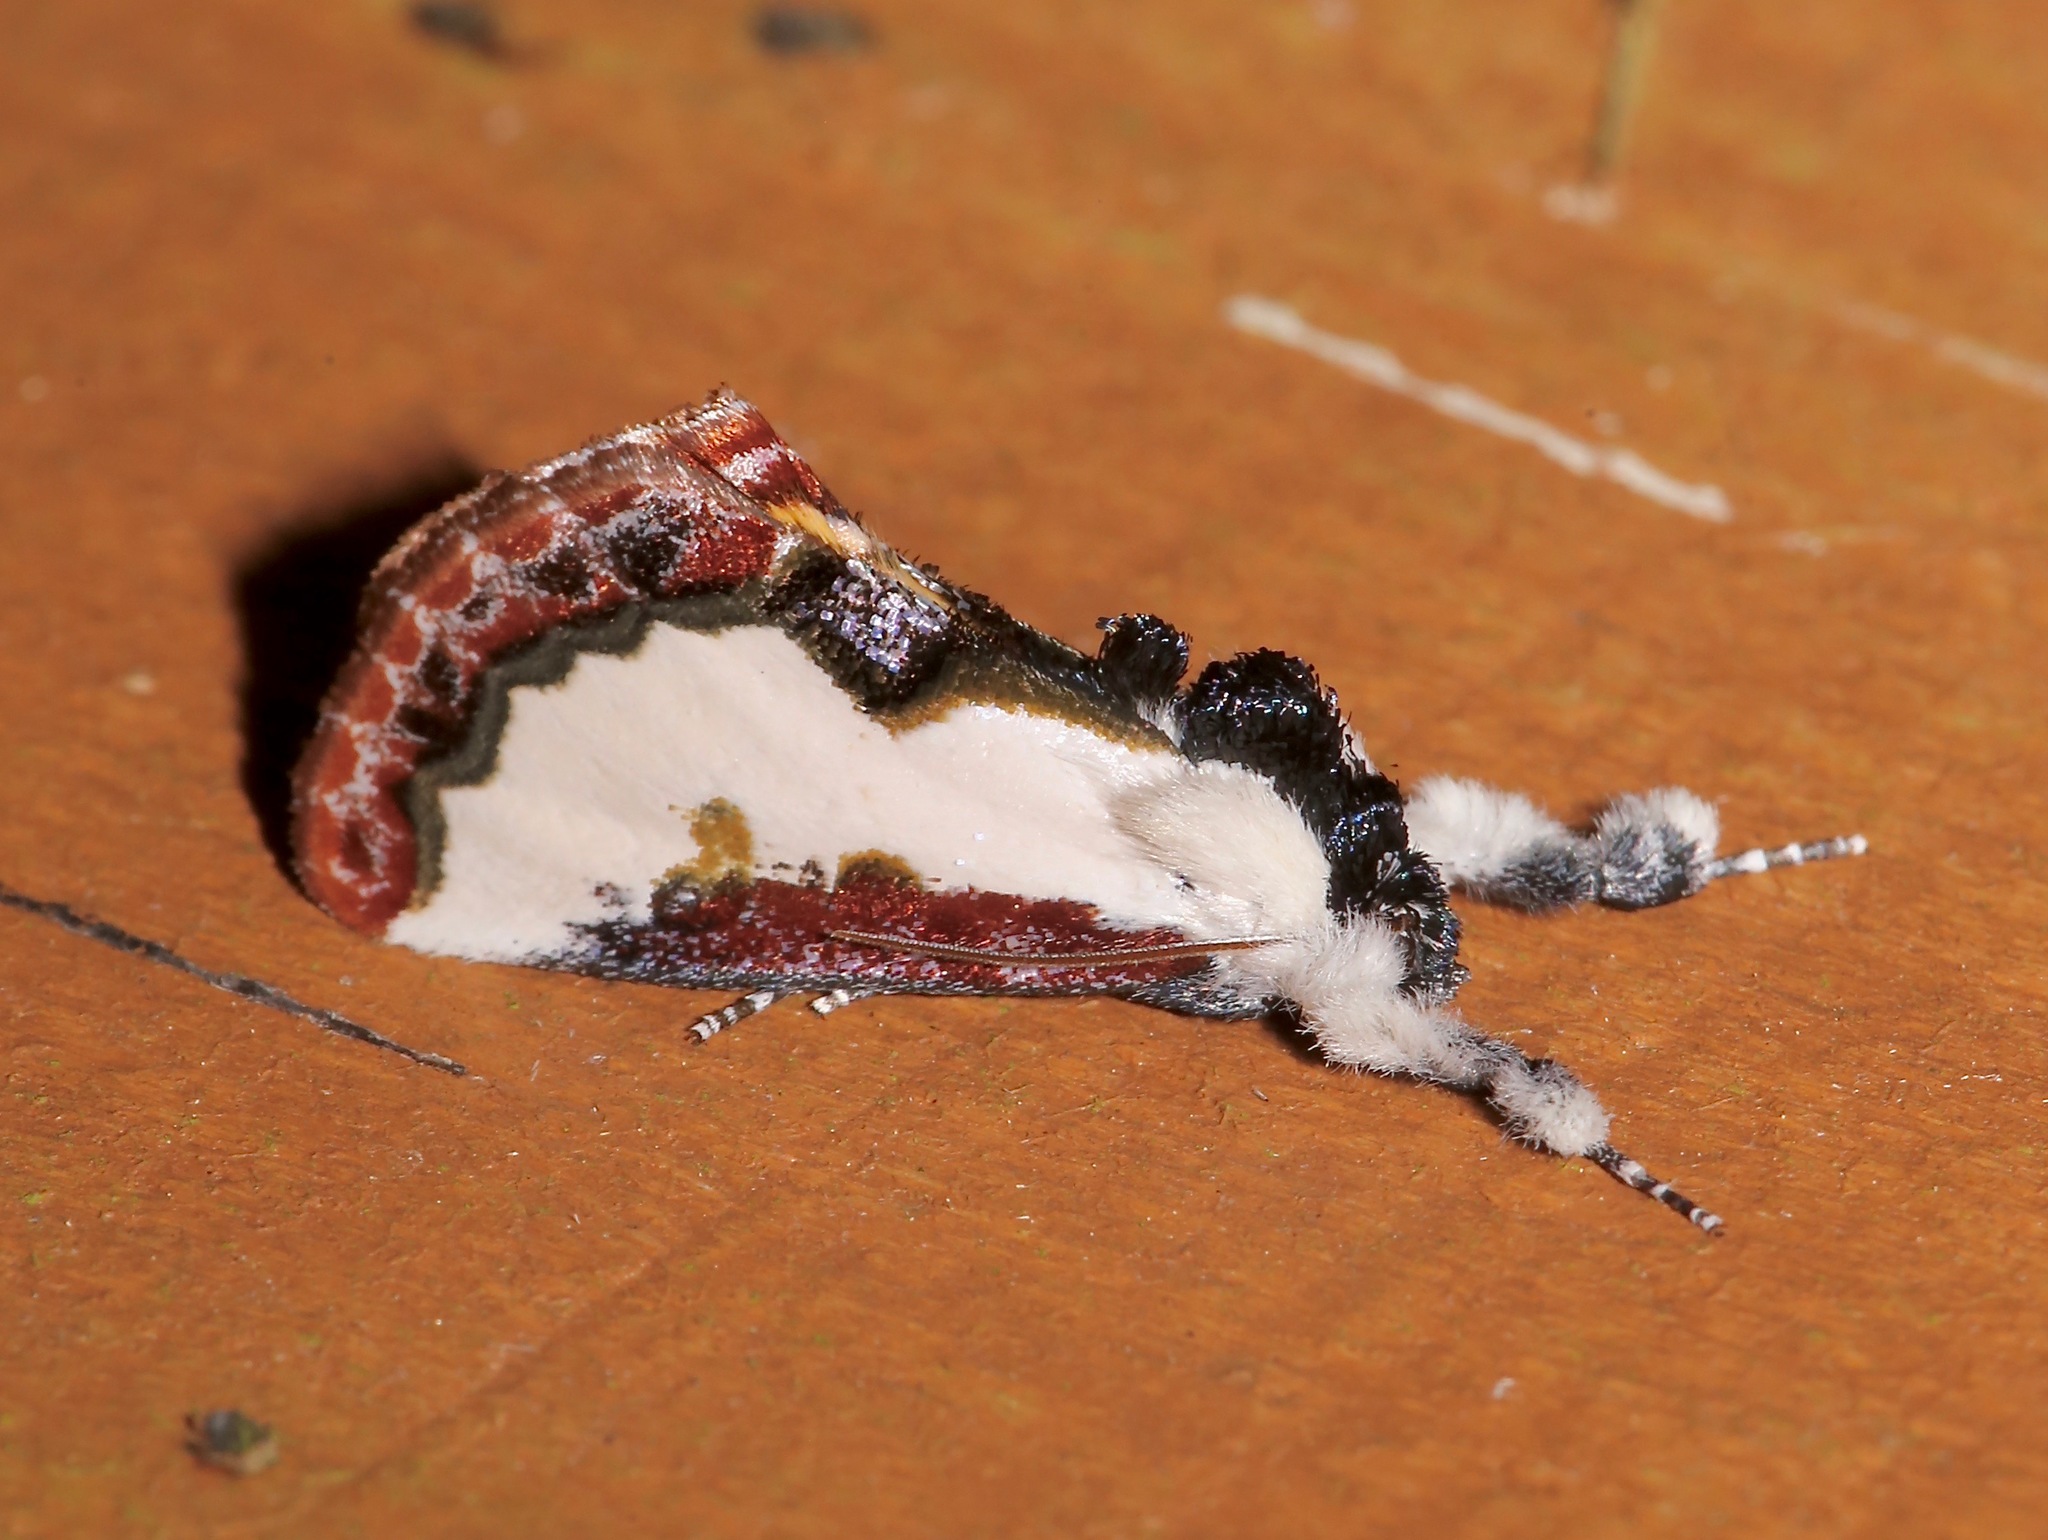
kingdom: Animalia
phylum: Arthropoda
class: Insecta
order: Lepidoptera
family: Noctuidae
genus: Eudryas
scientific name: Eudryas unio
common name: Pearly wood-nymph
